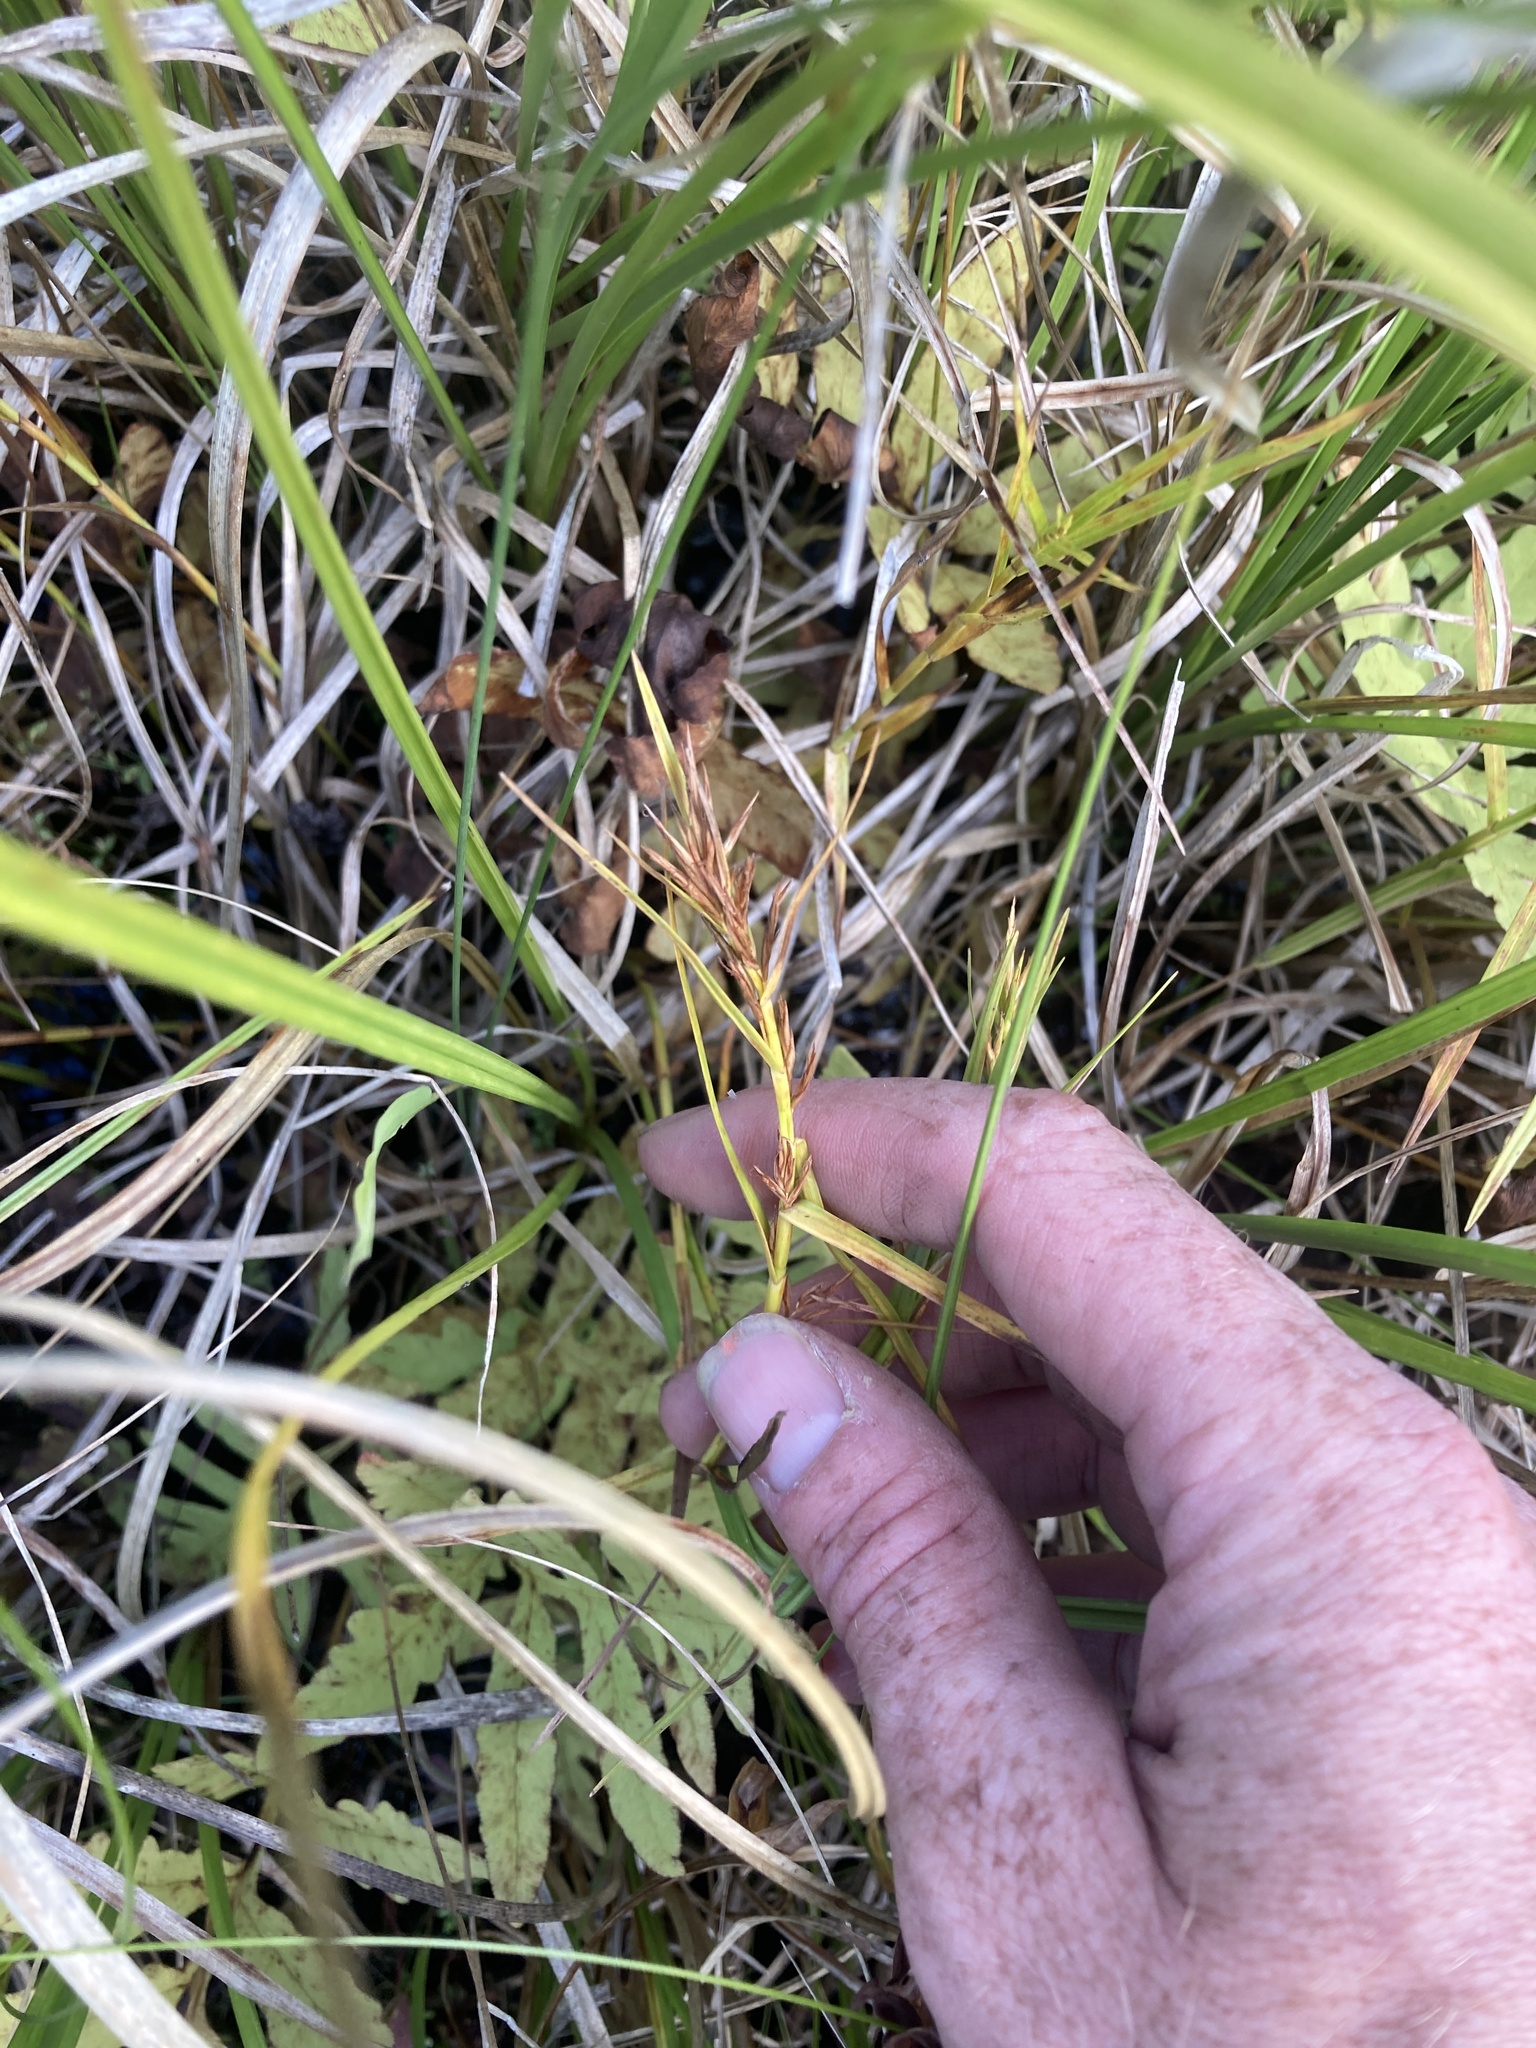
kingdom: Plantae
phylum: Tracheophyta
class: Liliopsida
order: Poales
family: Cyperaceae
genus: Dulichium
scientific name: Dulichium arundinaceum
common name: Three-way sedge
